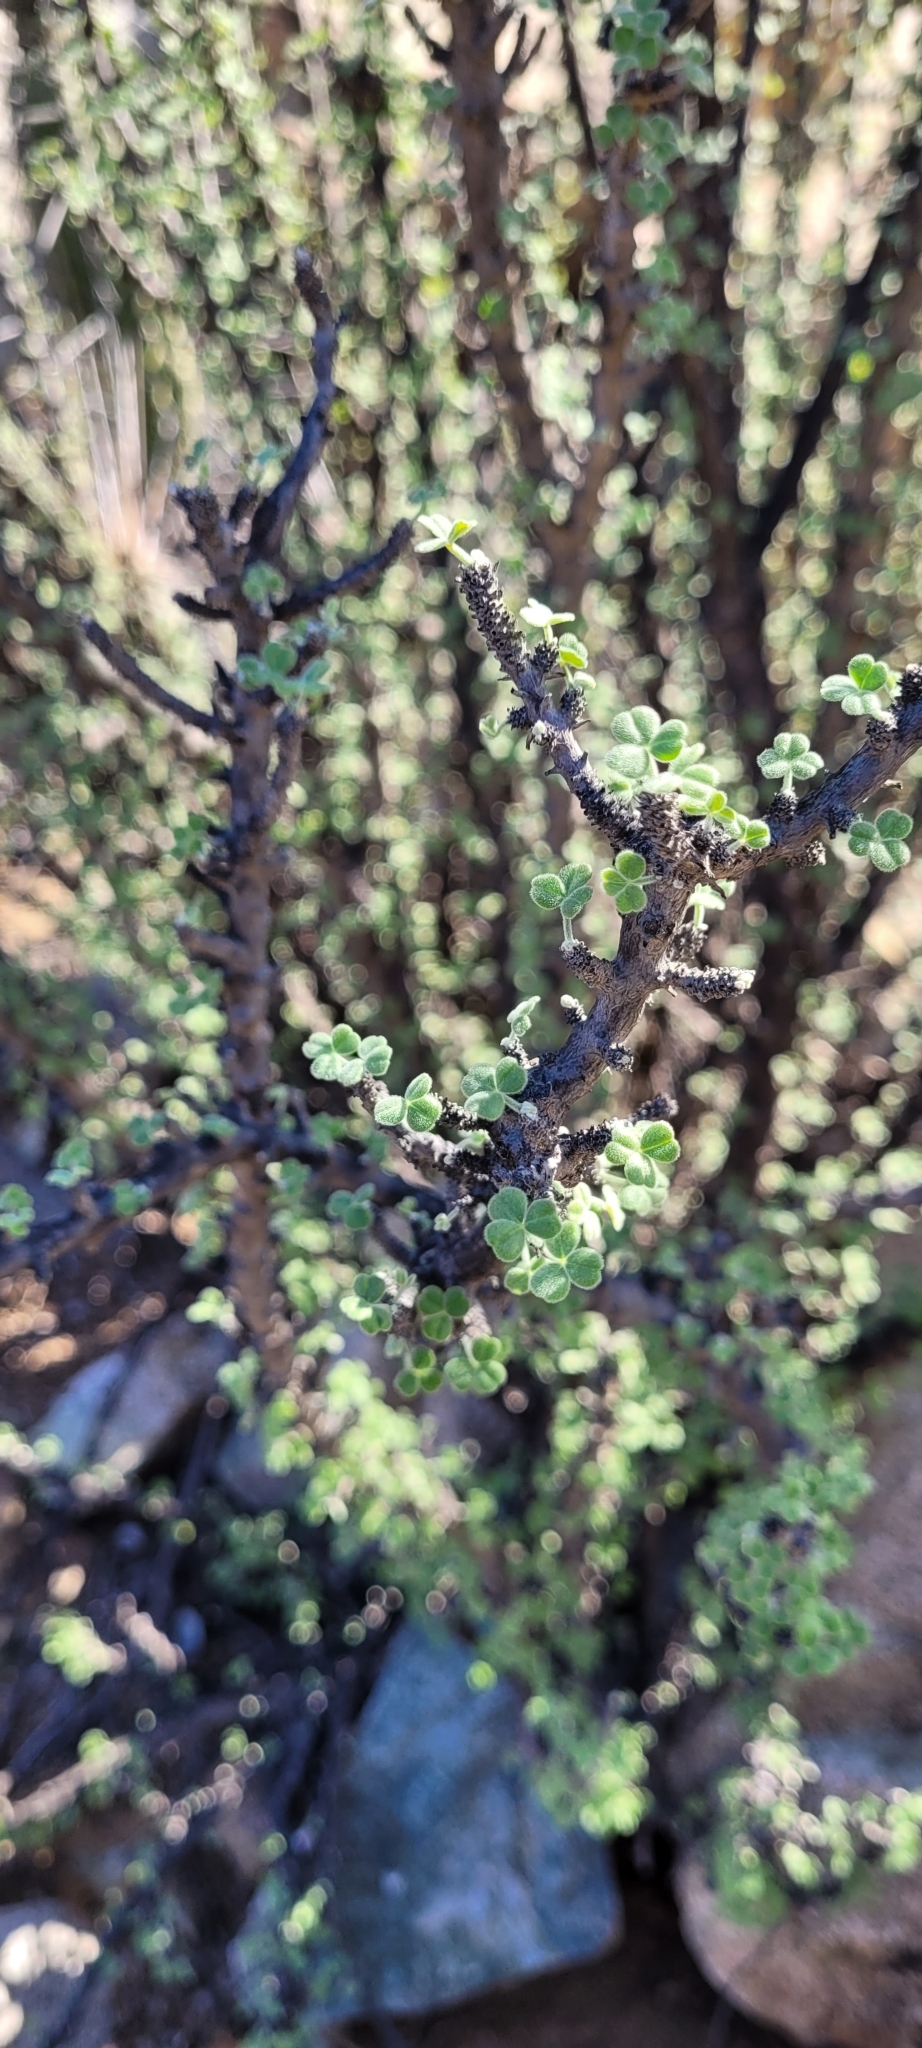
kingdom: Plantae
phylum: Tracheophyta
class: Magnoliopsida
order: Oxalidales
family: Oxalidaceae
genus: Oxalis
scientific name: Oxalis gigantea
